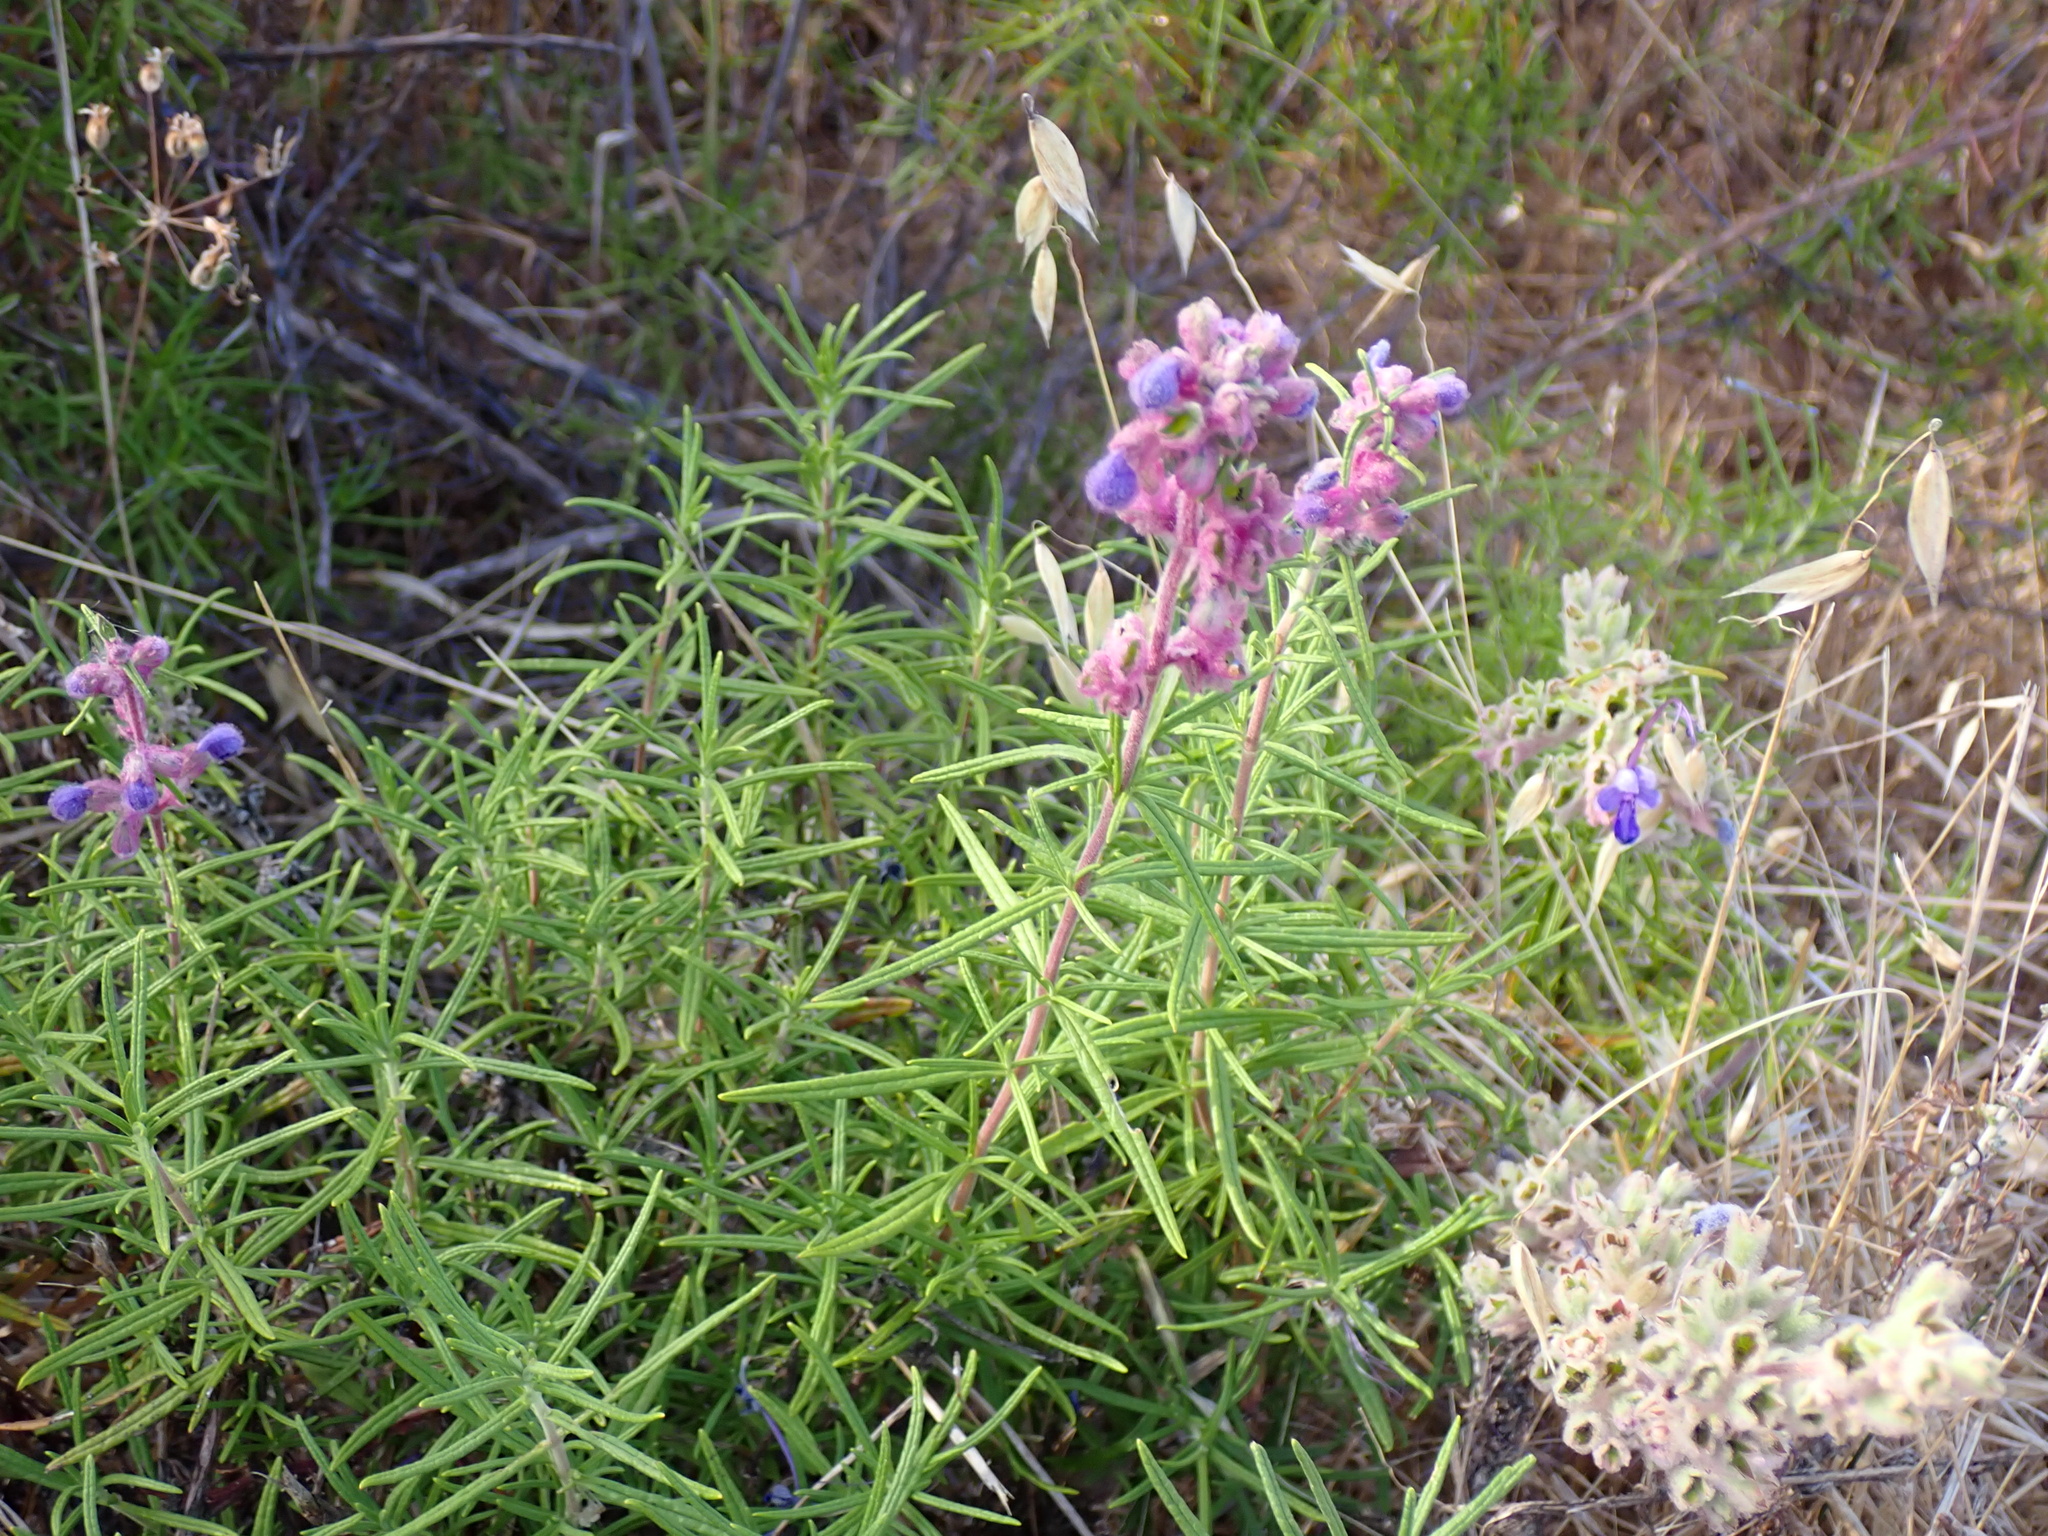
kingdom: Plantae
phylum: Tracheophyta
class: Magnoliopsida
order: Lamiales
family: Lamiaceae
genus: Trichostema
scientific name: Trichostema lanatum
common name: Woolly bluecurls
